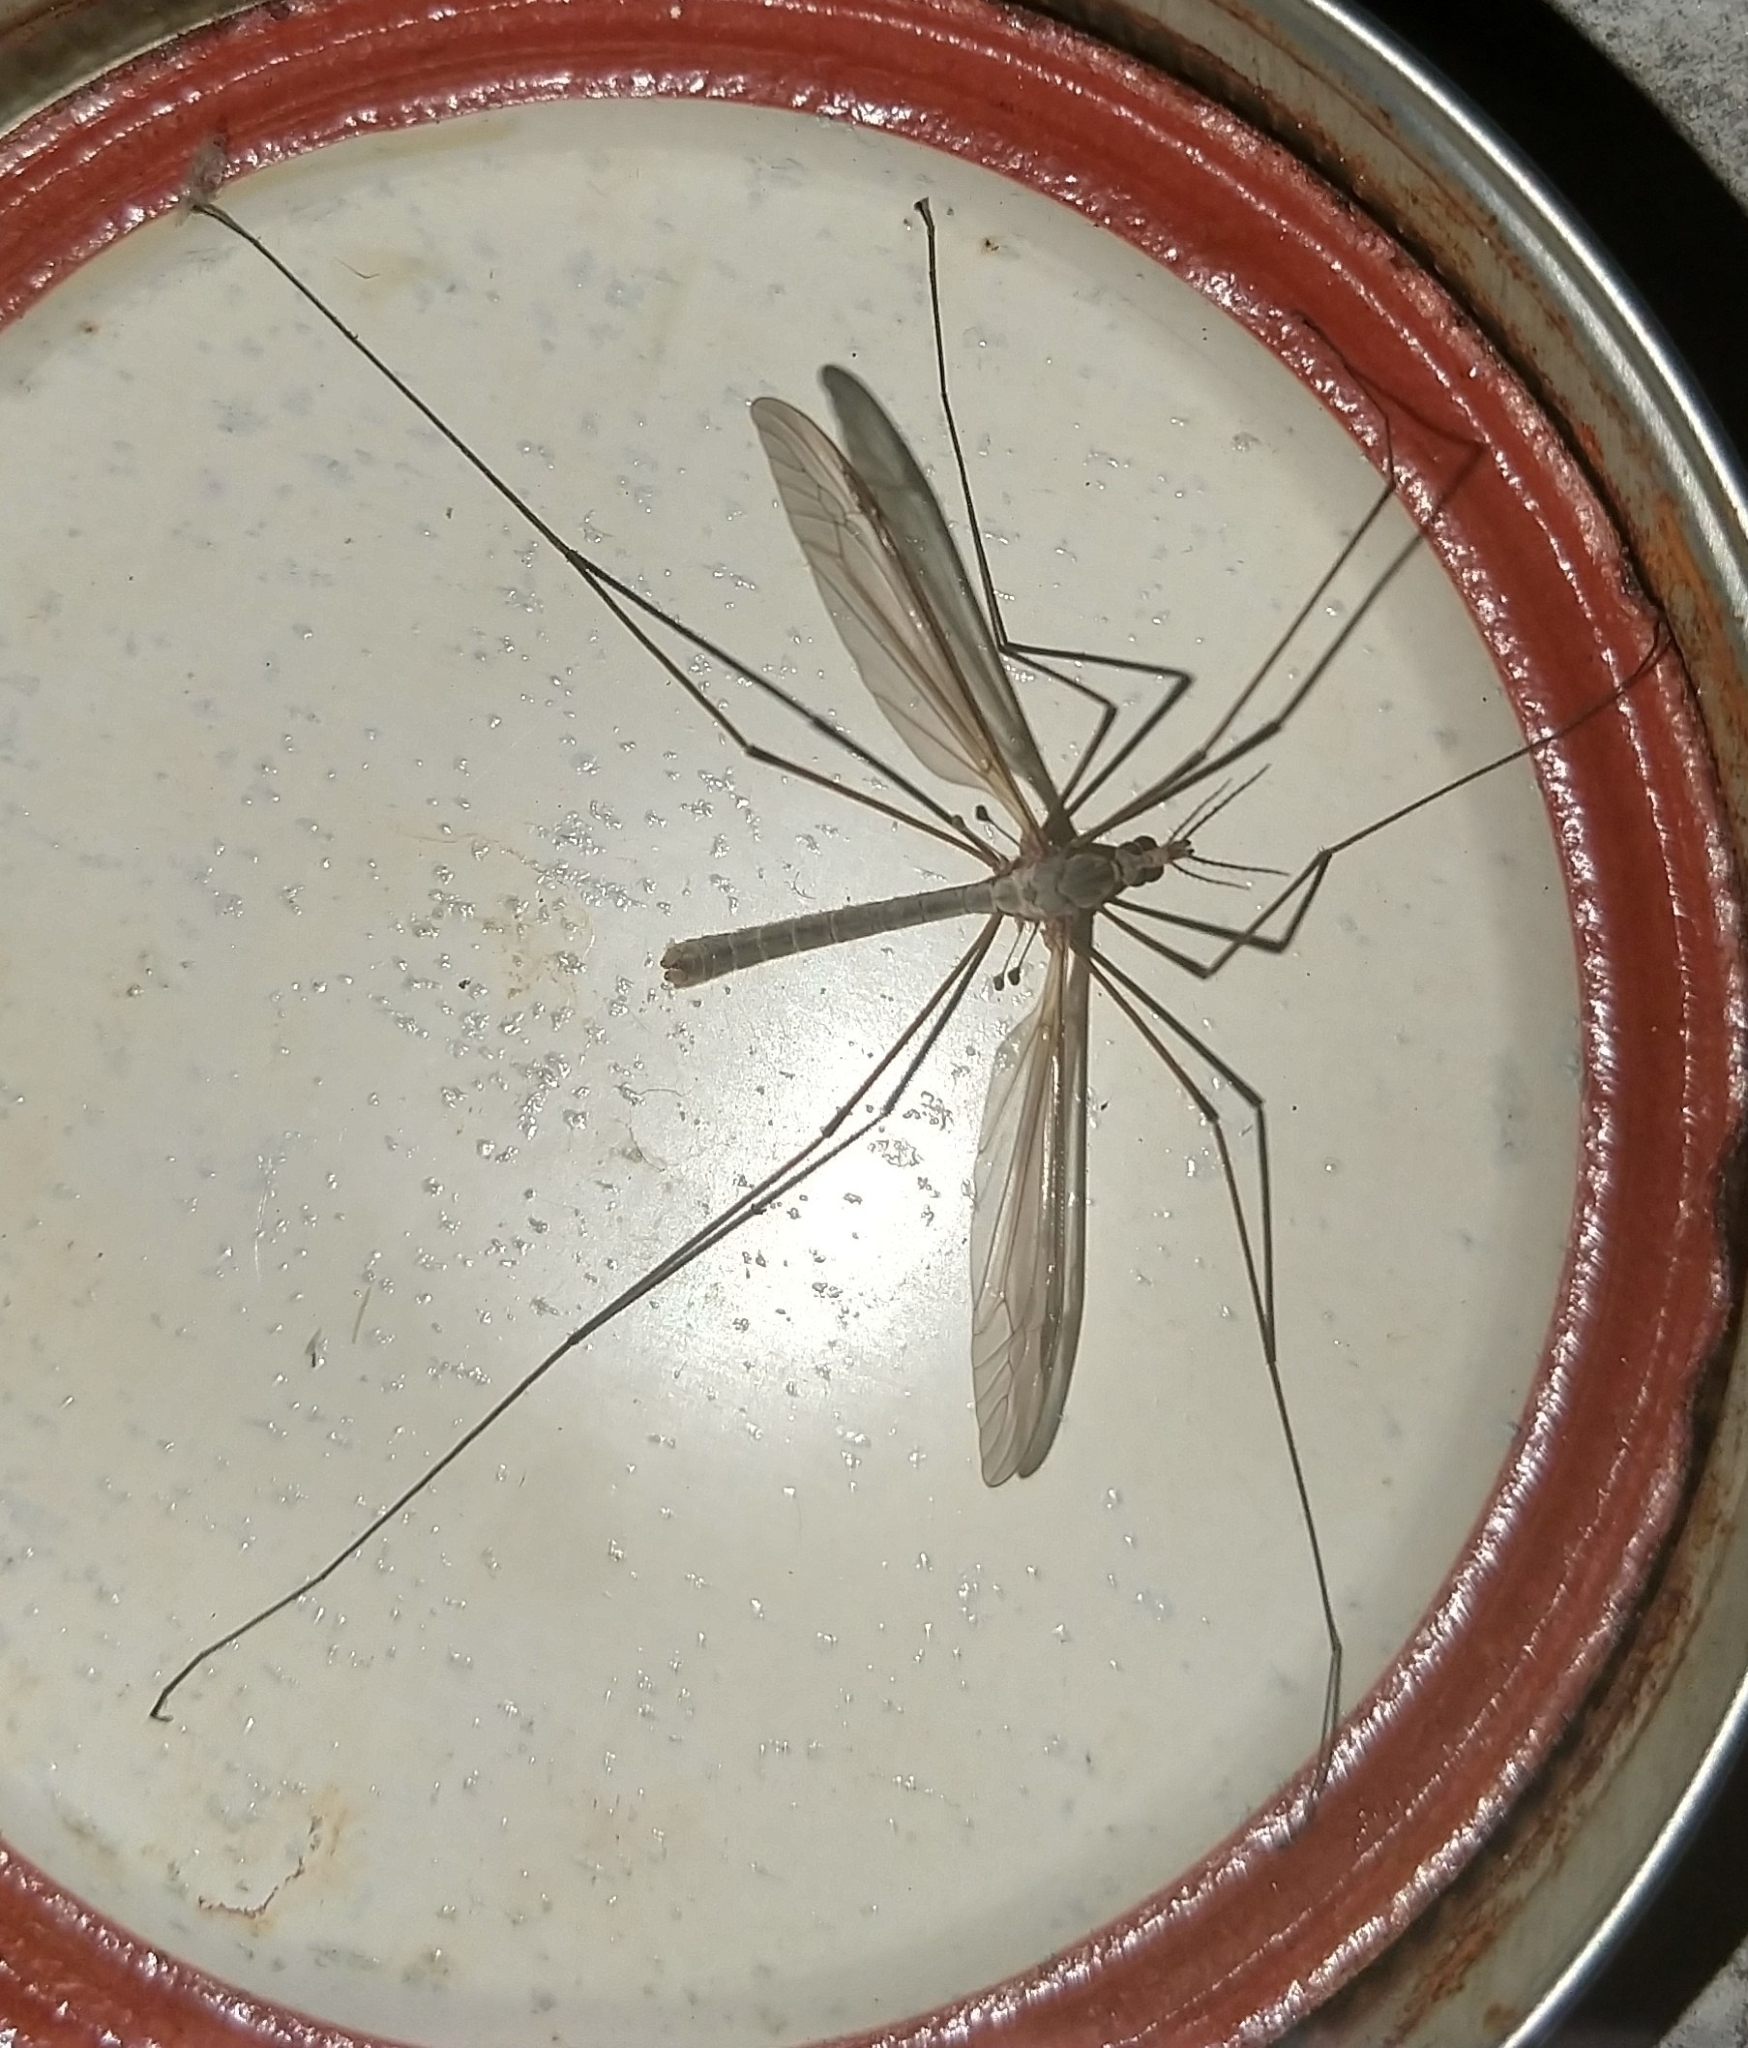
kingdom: Animalia
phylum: Arthropoda
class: Insecta
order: Diptera
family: Tipulidae
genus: Tipula
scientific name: Tipula
